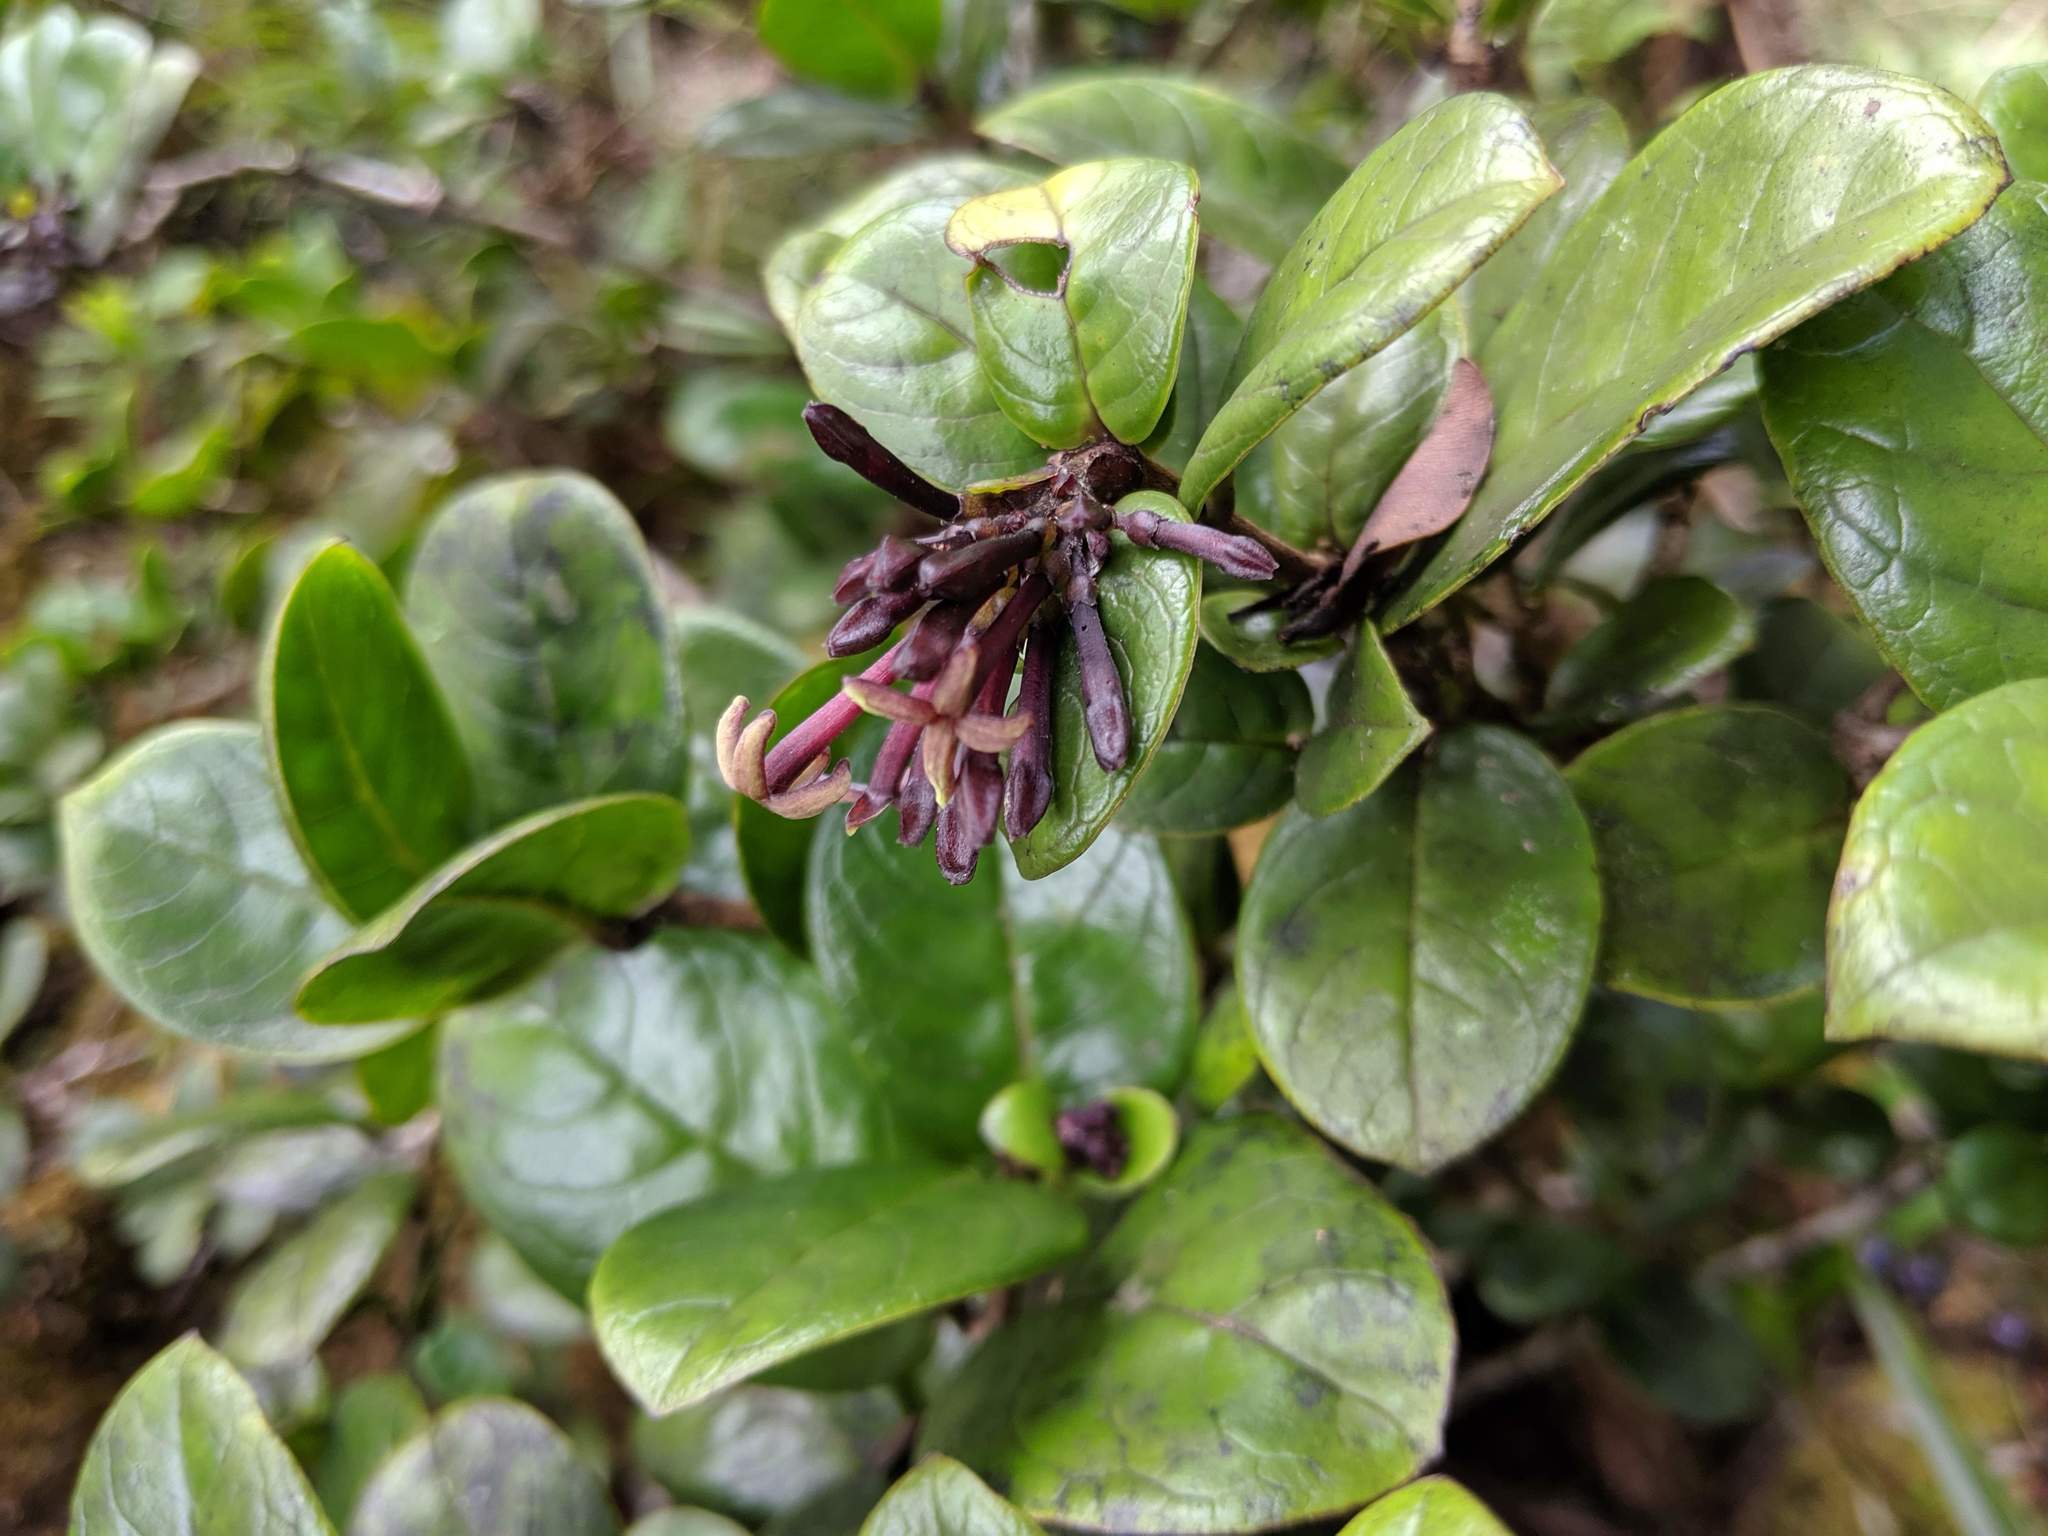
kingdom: Plantae
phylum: Tracheophyta
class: Magnoliopsida
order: Gentianales
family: Rubiaceae
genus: Kadua
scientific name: Kadua affinis
